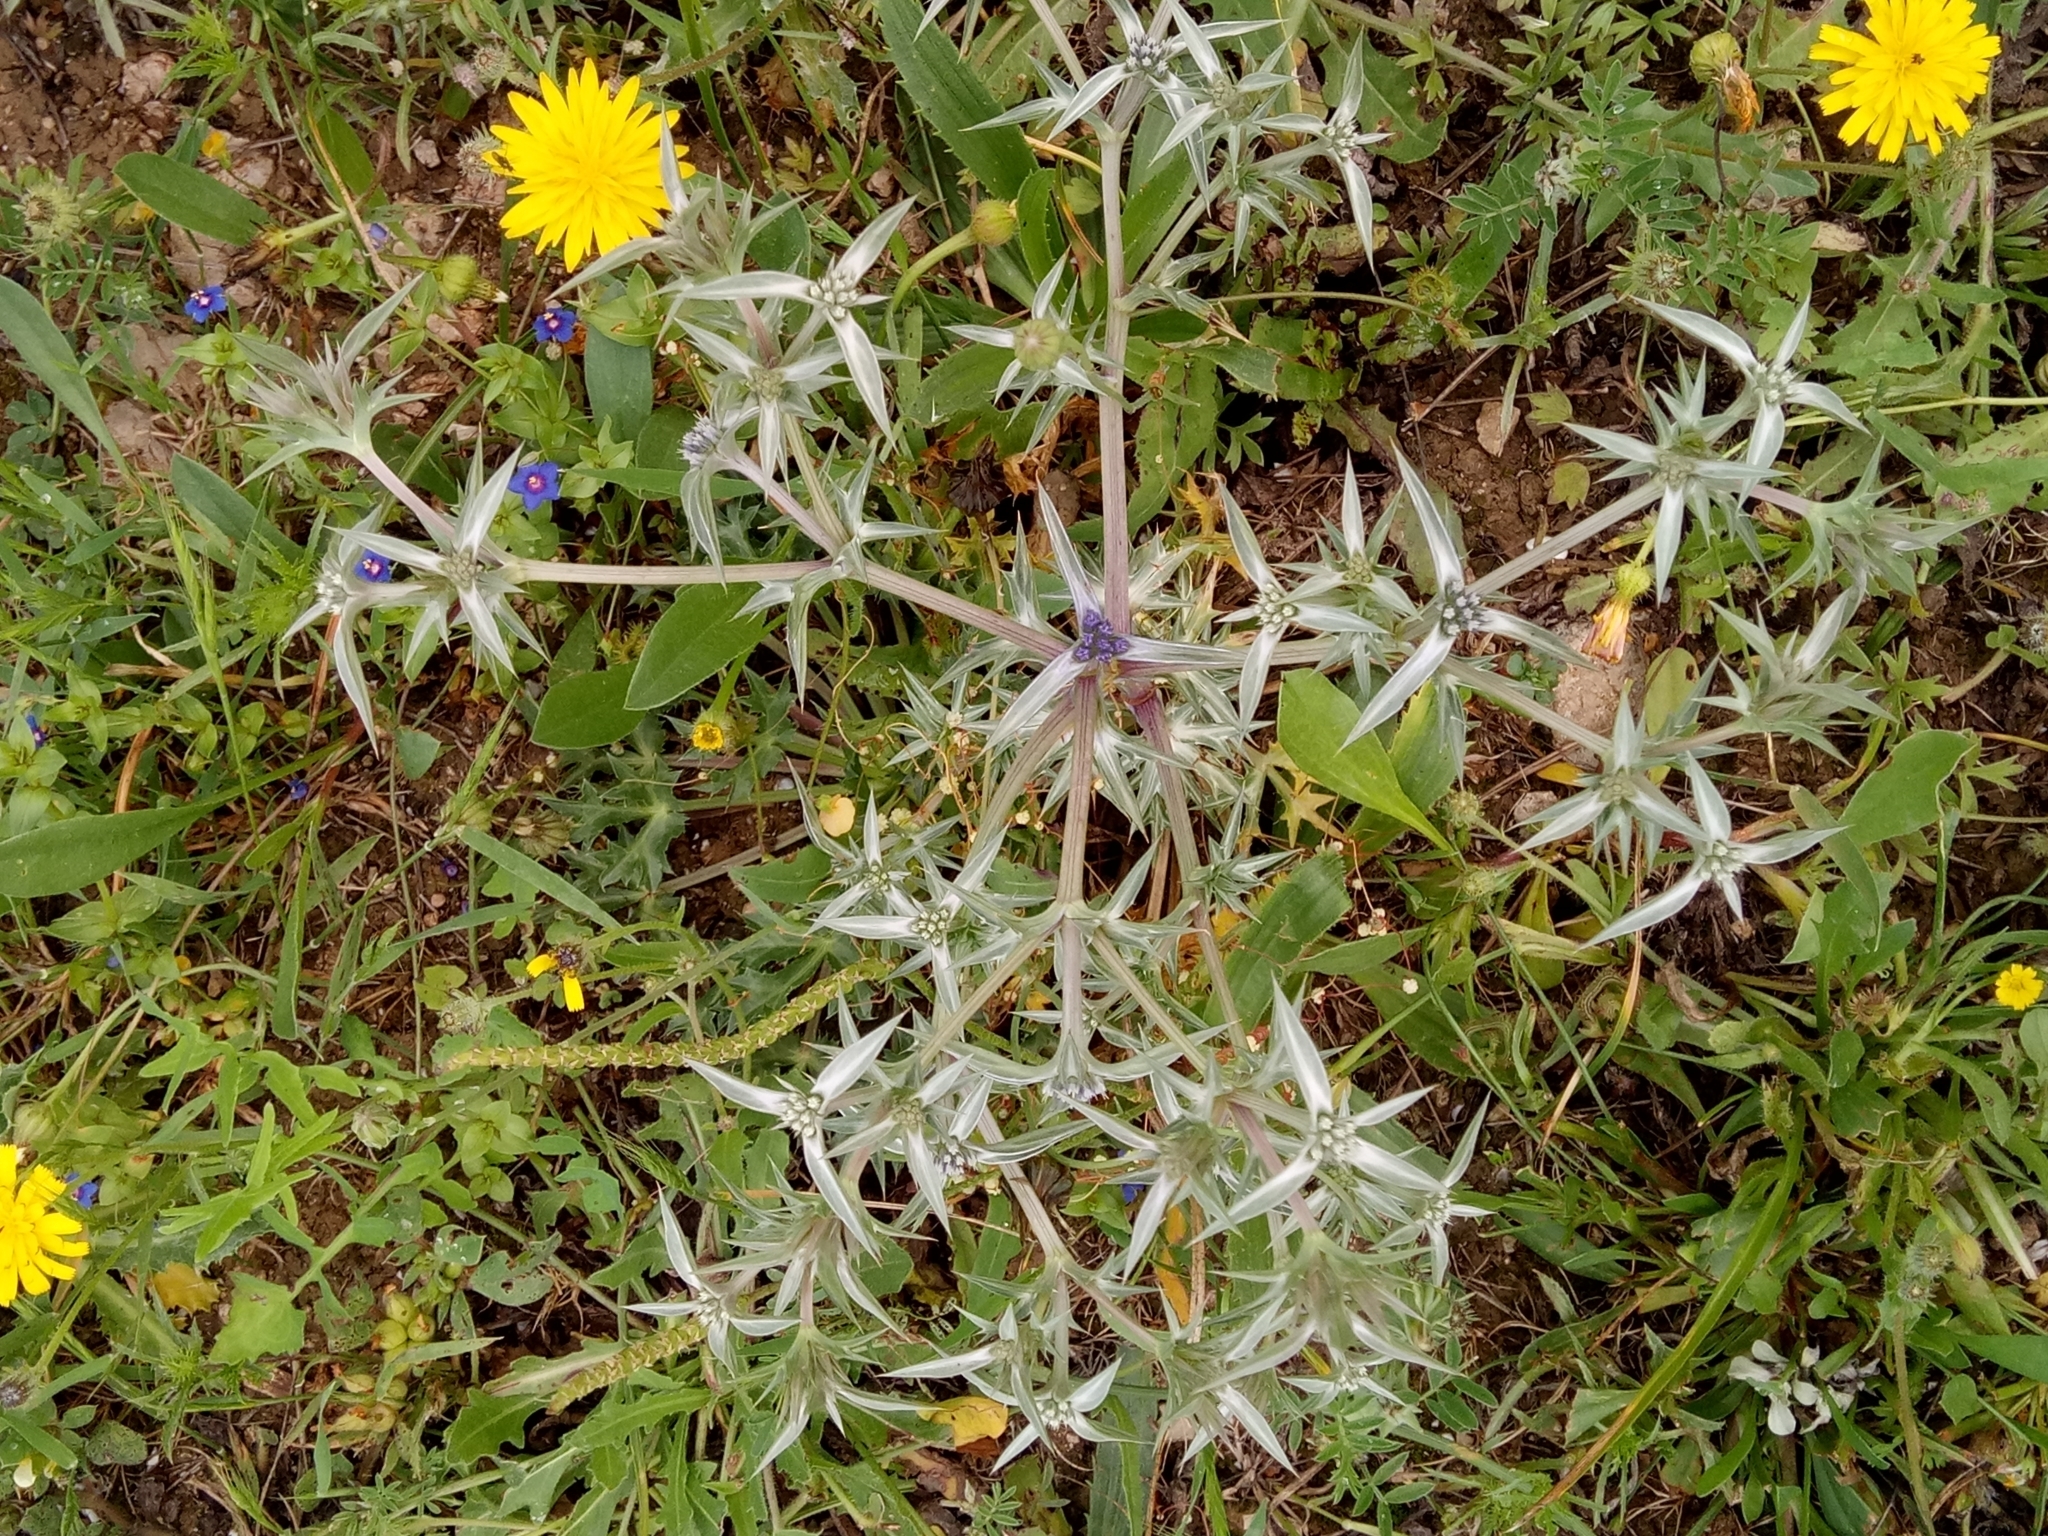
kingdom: Plantae
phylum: Tracheophyta
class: Magnoliopsida
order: Apiales
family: Apiaceae
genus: Eryngium
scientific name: Eryngium triquetrum
